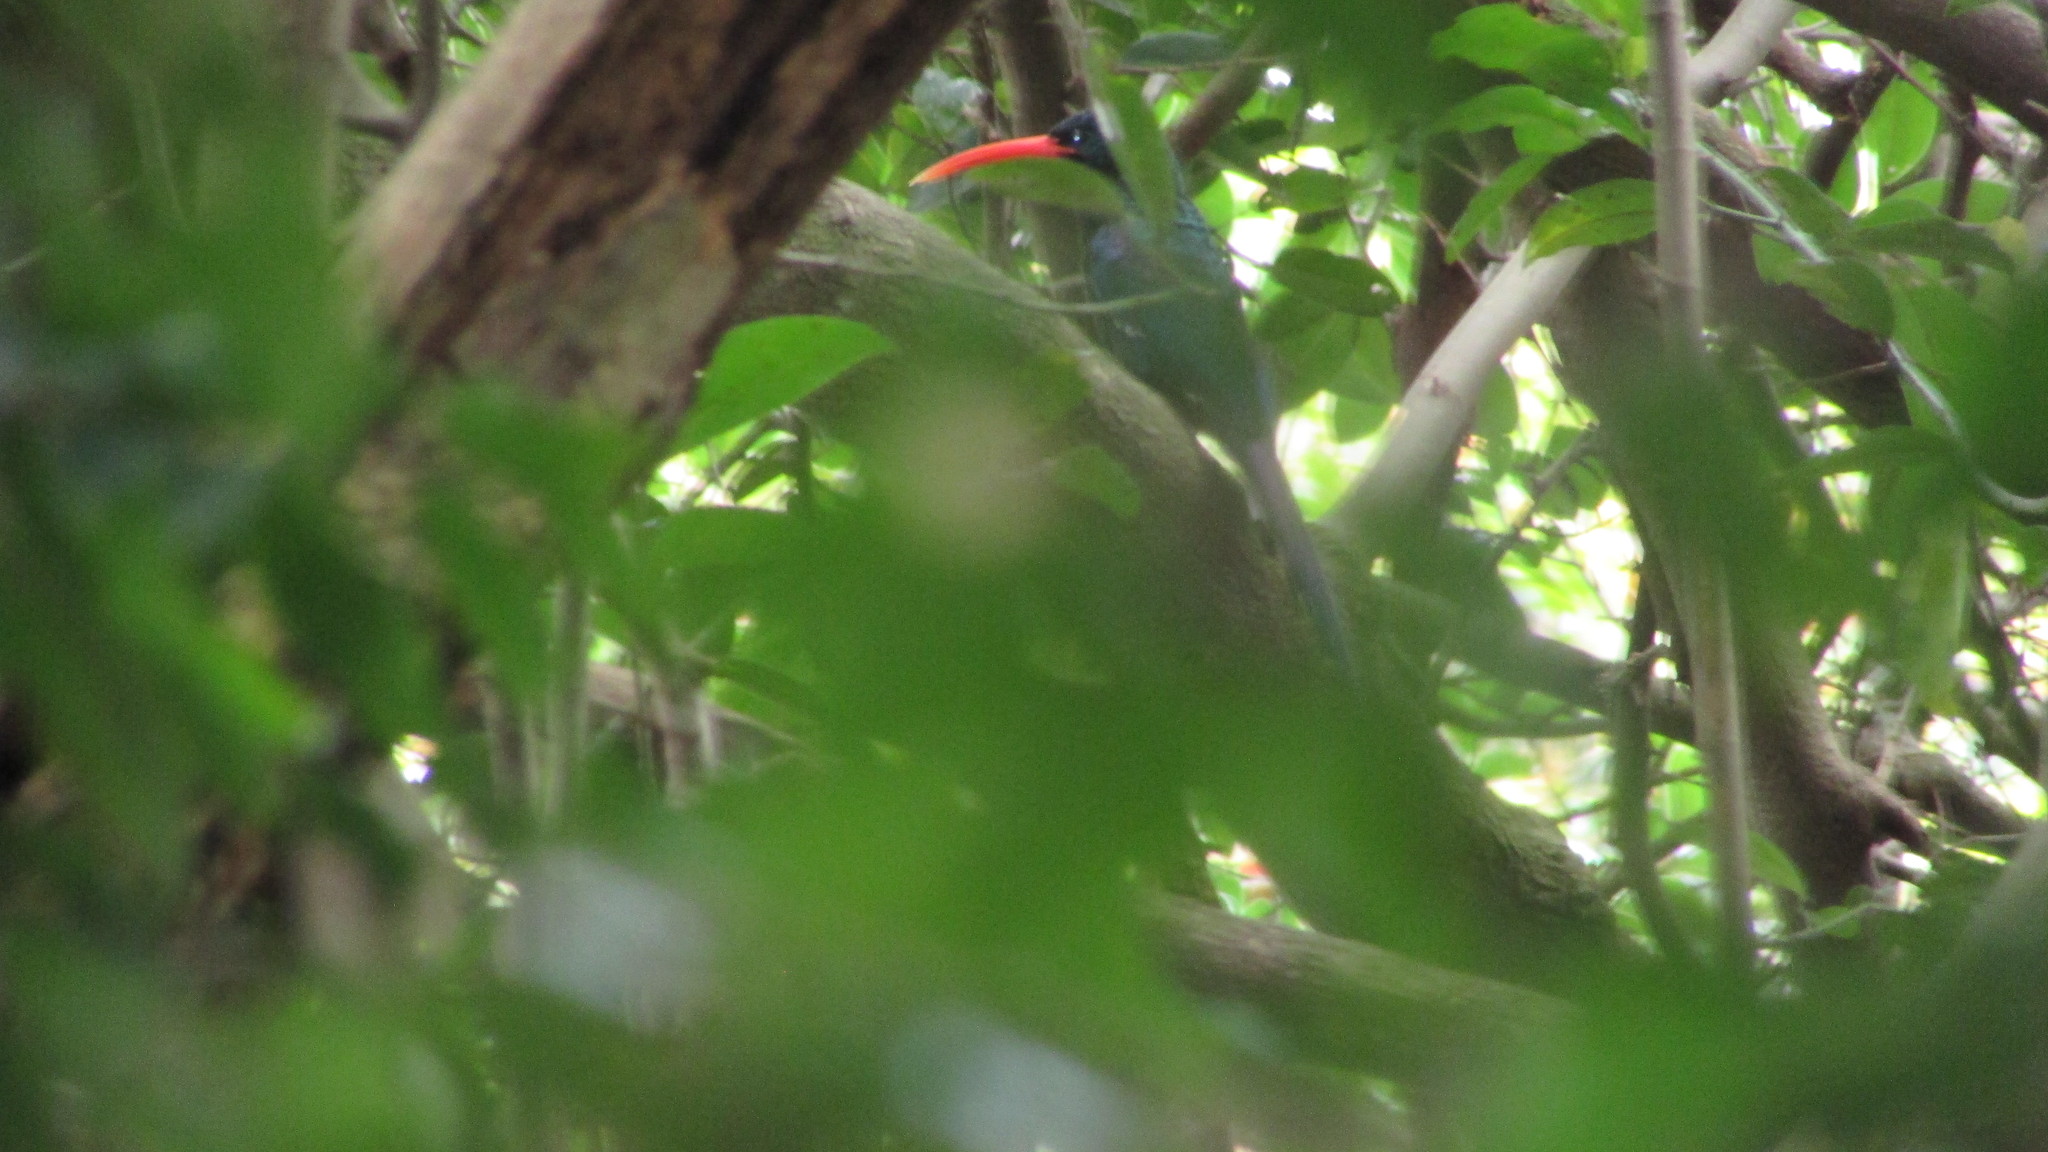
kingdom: Animalia
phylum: Chordata
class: Aves
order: Bucerotiformes
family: Phoeniculidae
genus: Phoeniculus
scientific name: Phoeniculus purpureus
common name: Green woodhoopoe
